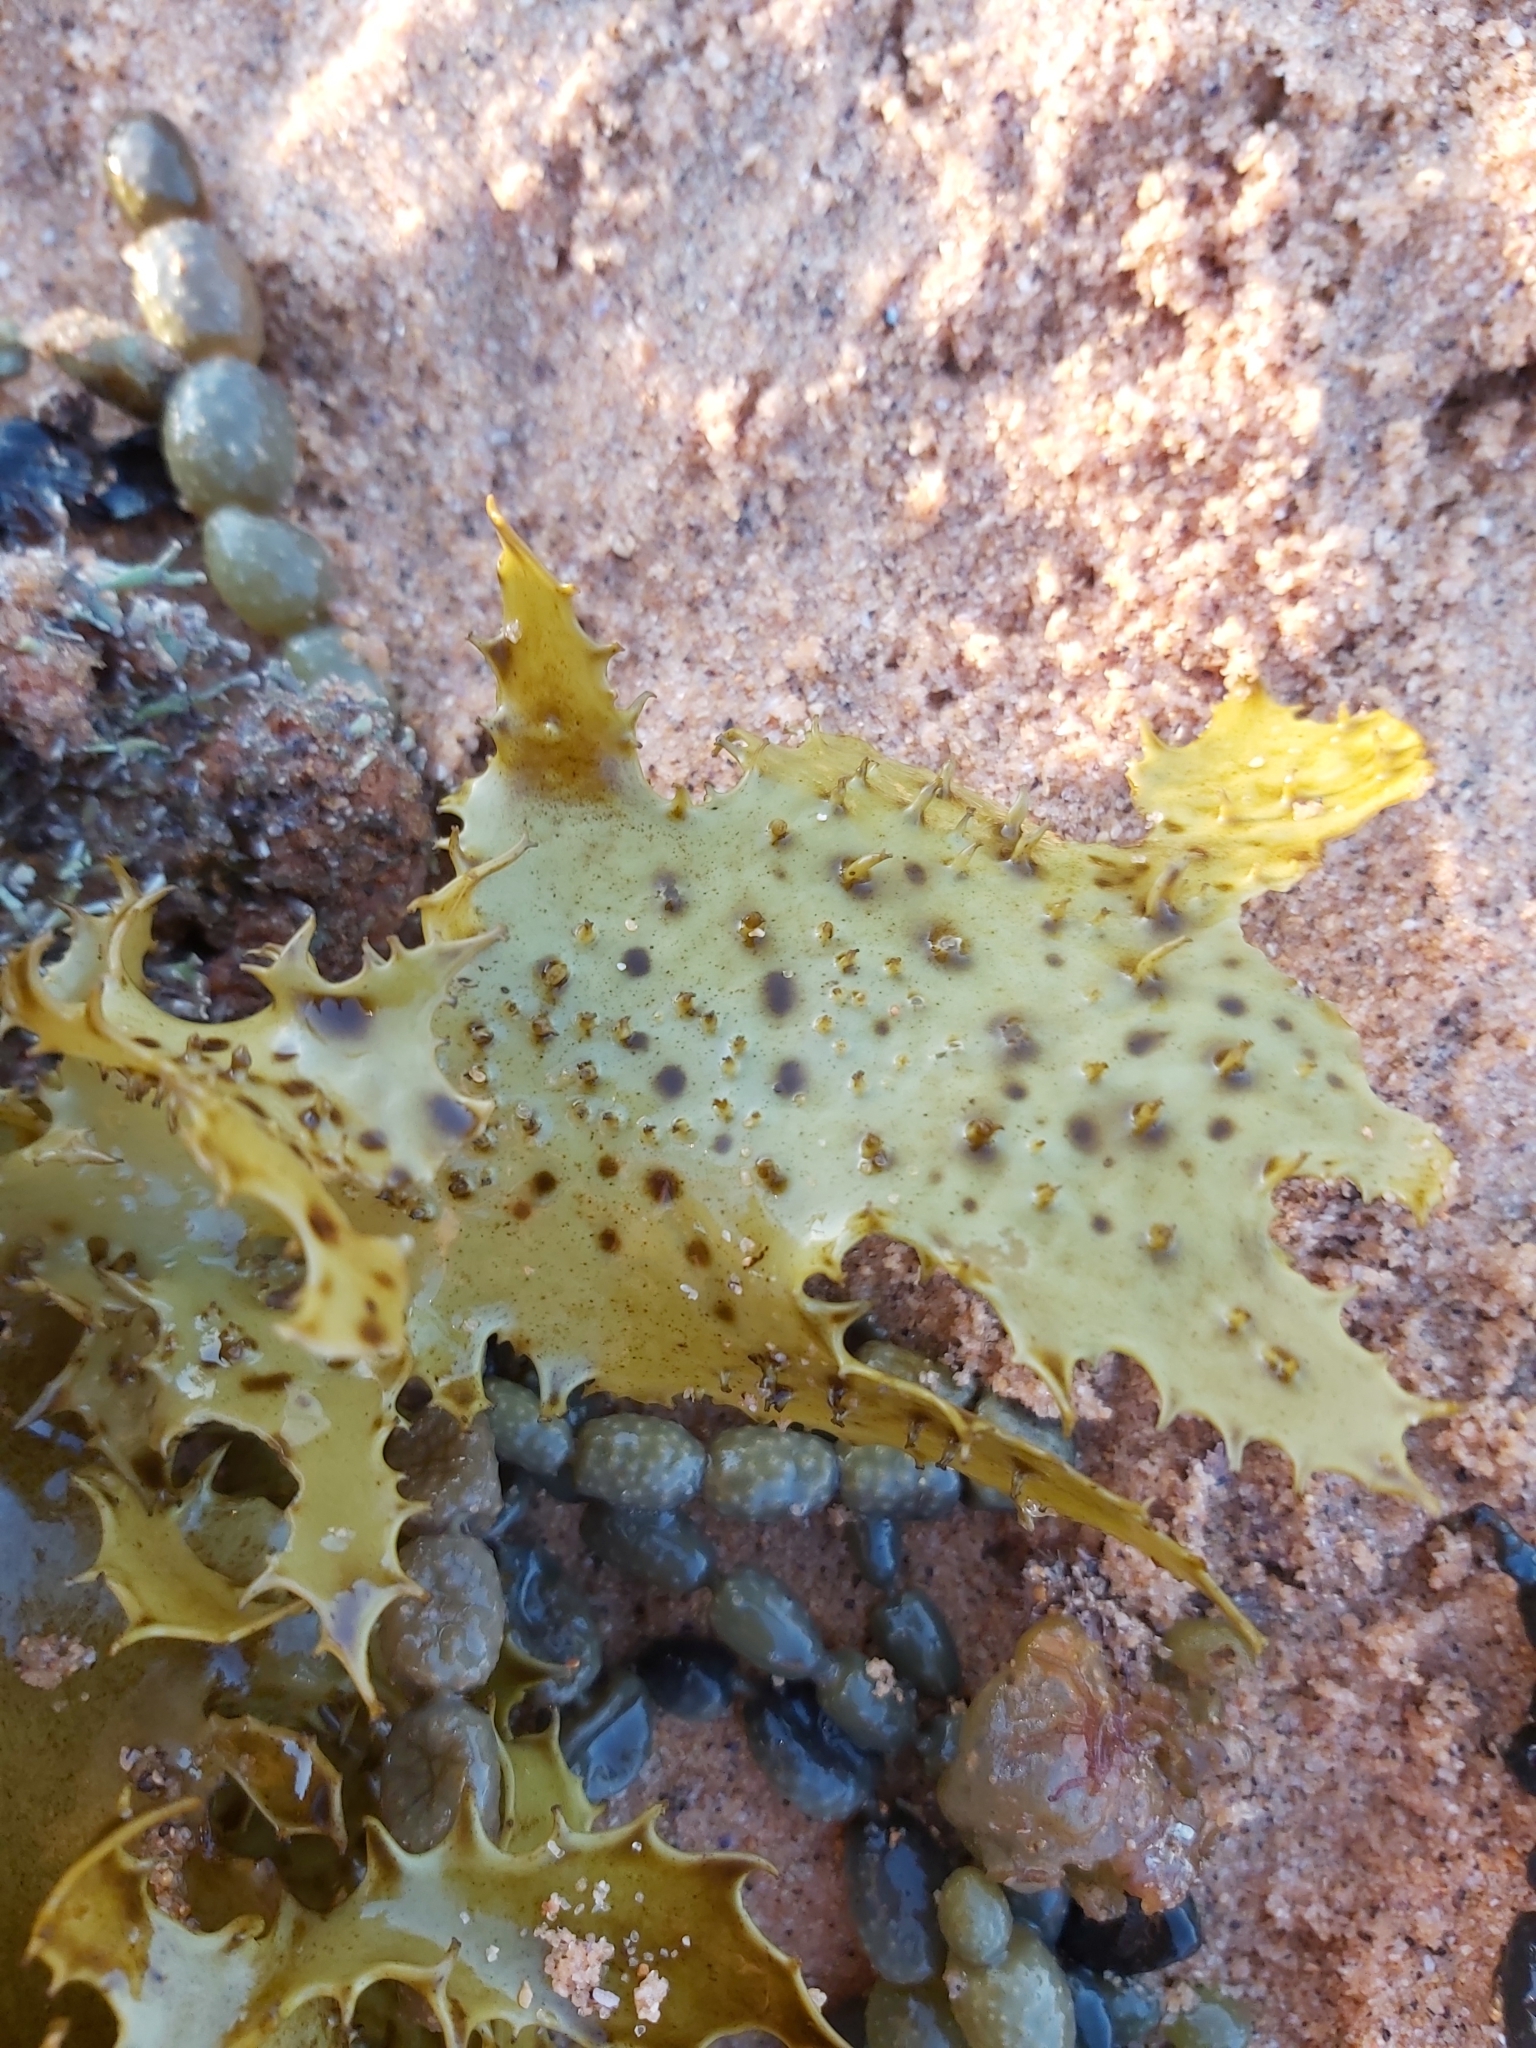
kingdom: Chromista
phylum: Ochrophyta
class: Phaeophyceae
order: Laminariales
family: Lessoniaceae
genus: Ecklonia
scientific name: Ecklonia radiata
